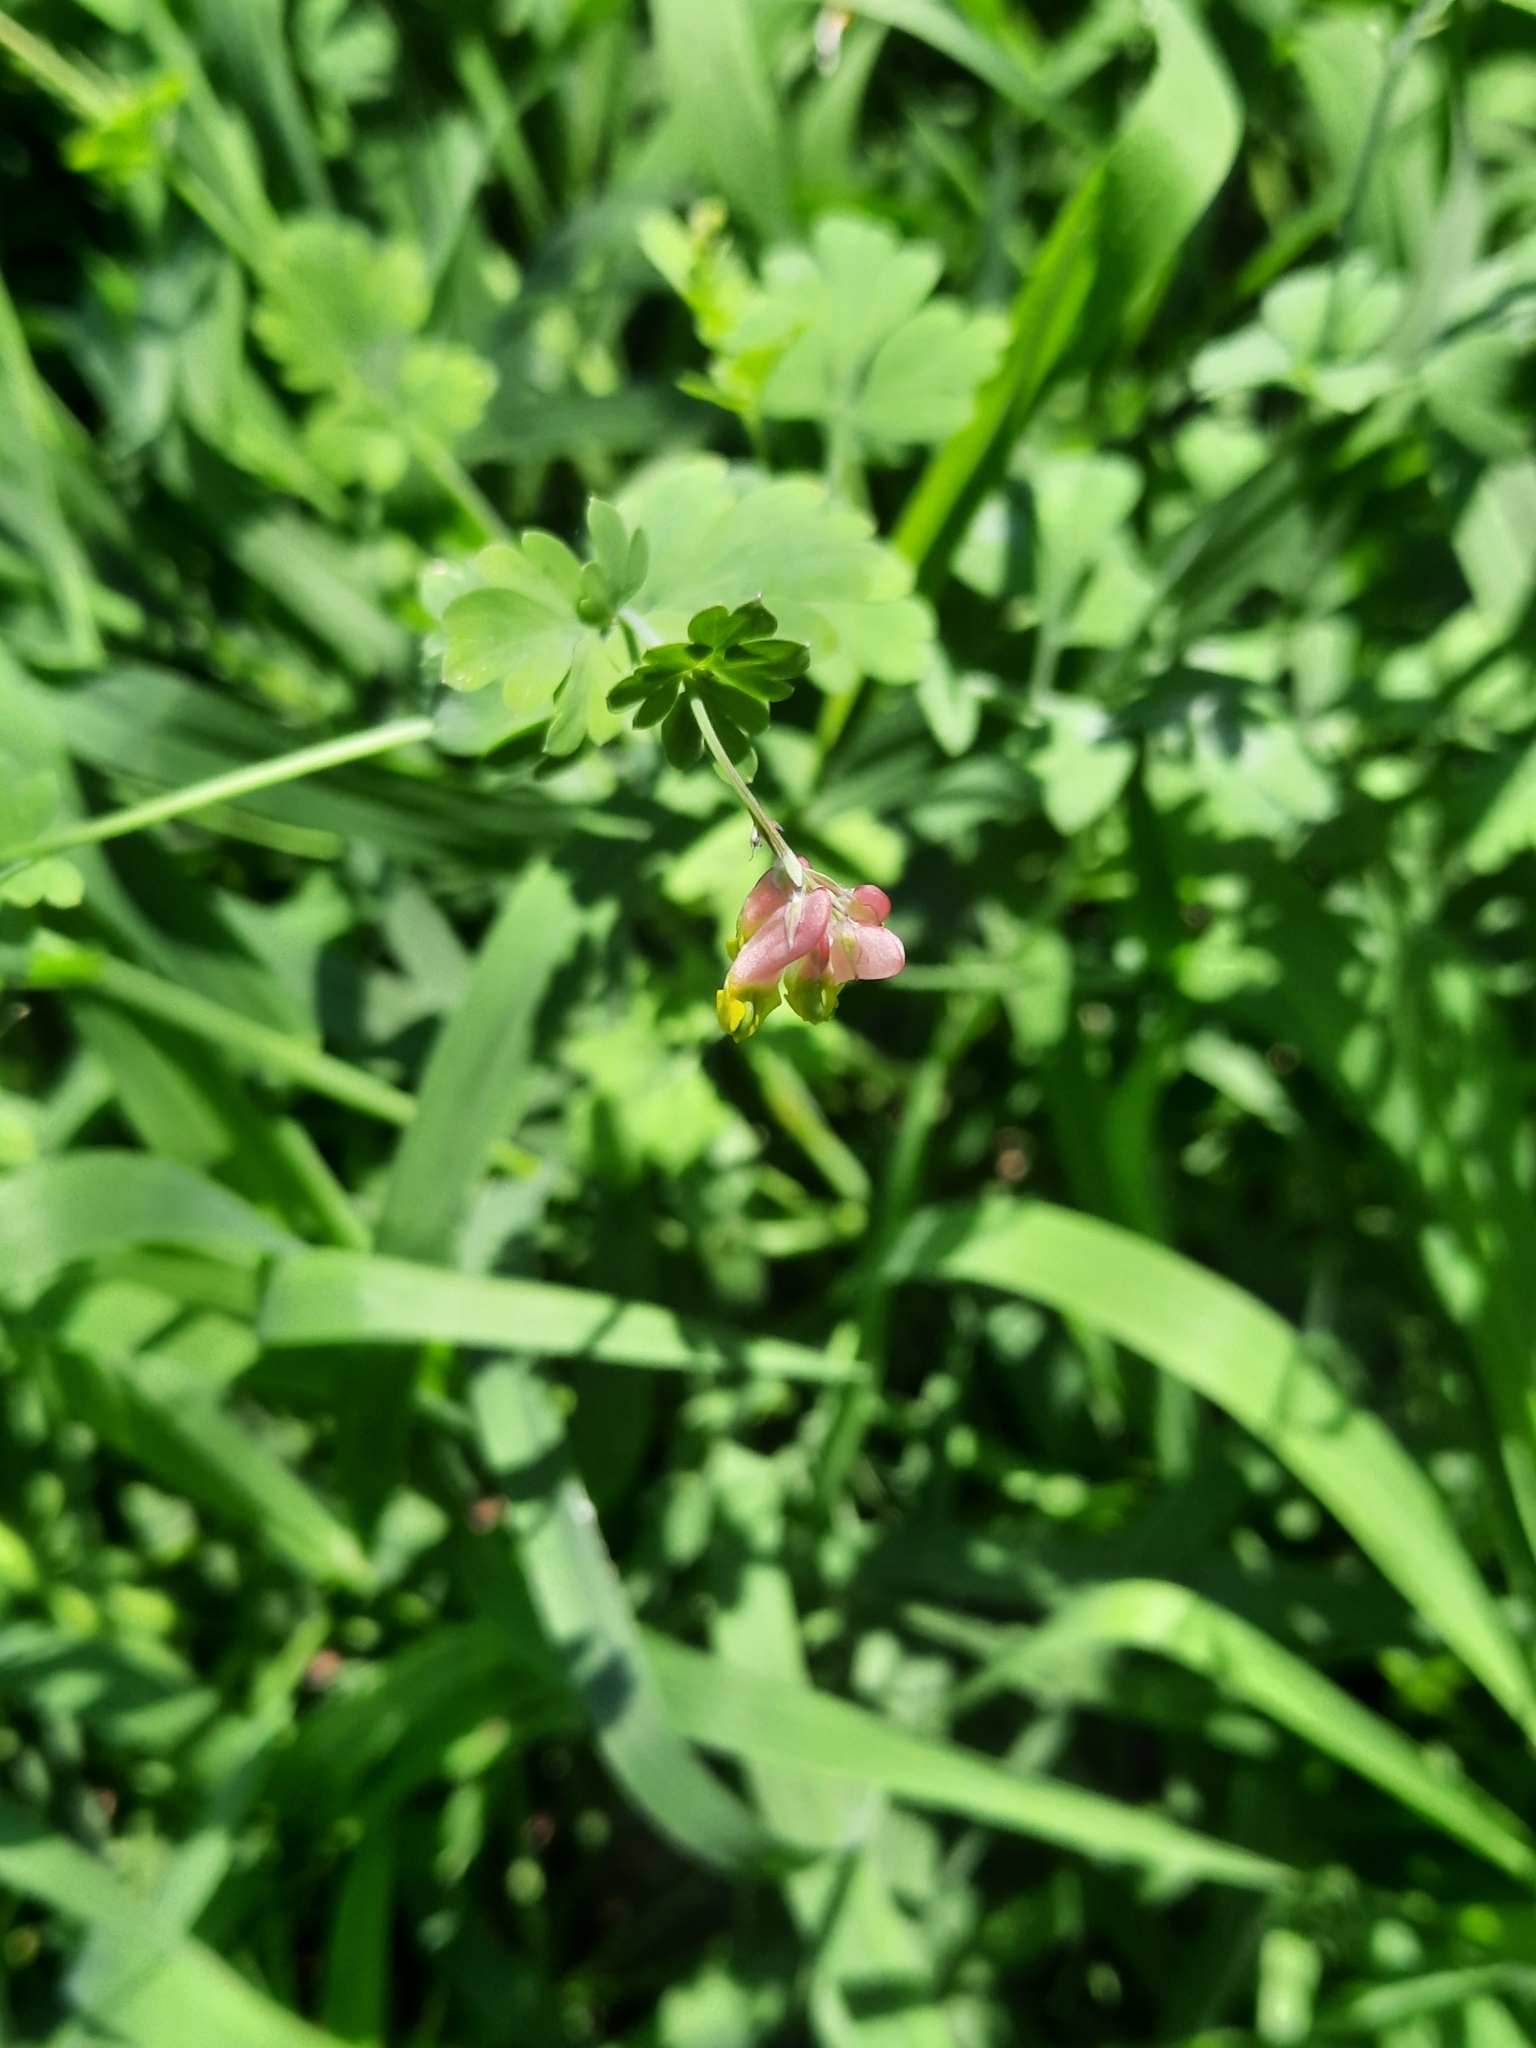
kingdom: Plantae
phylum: Tracheophyta
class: Magnoliopsida
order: Ranunculales
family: Papaveraceae
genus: Capnoides
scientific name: Capnoides sempervirens
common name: Rock harlequin
